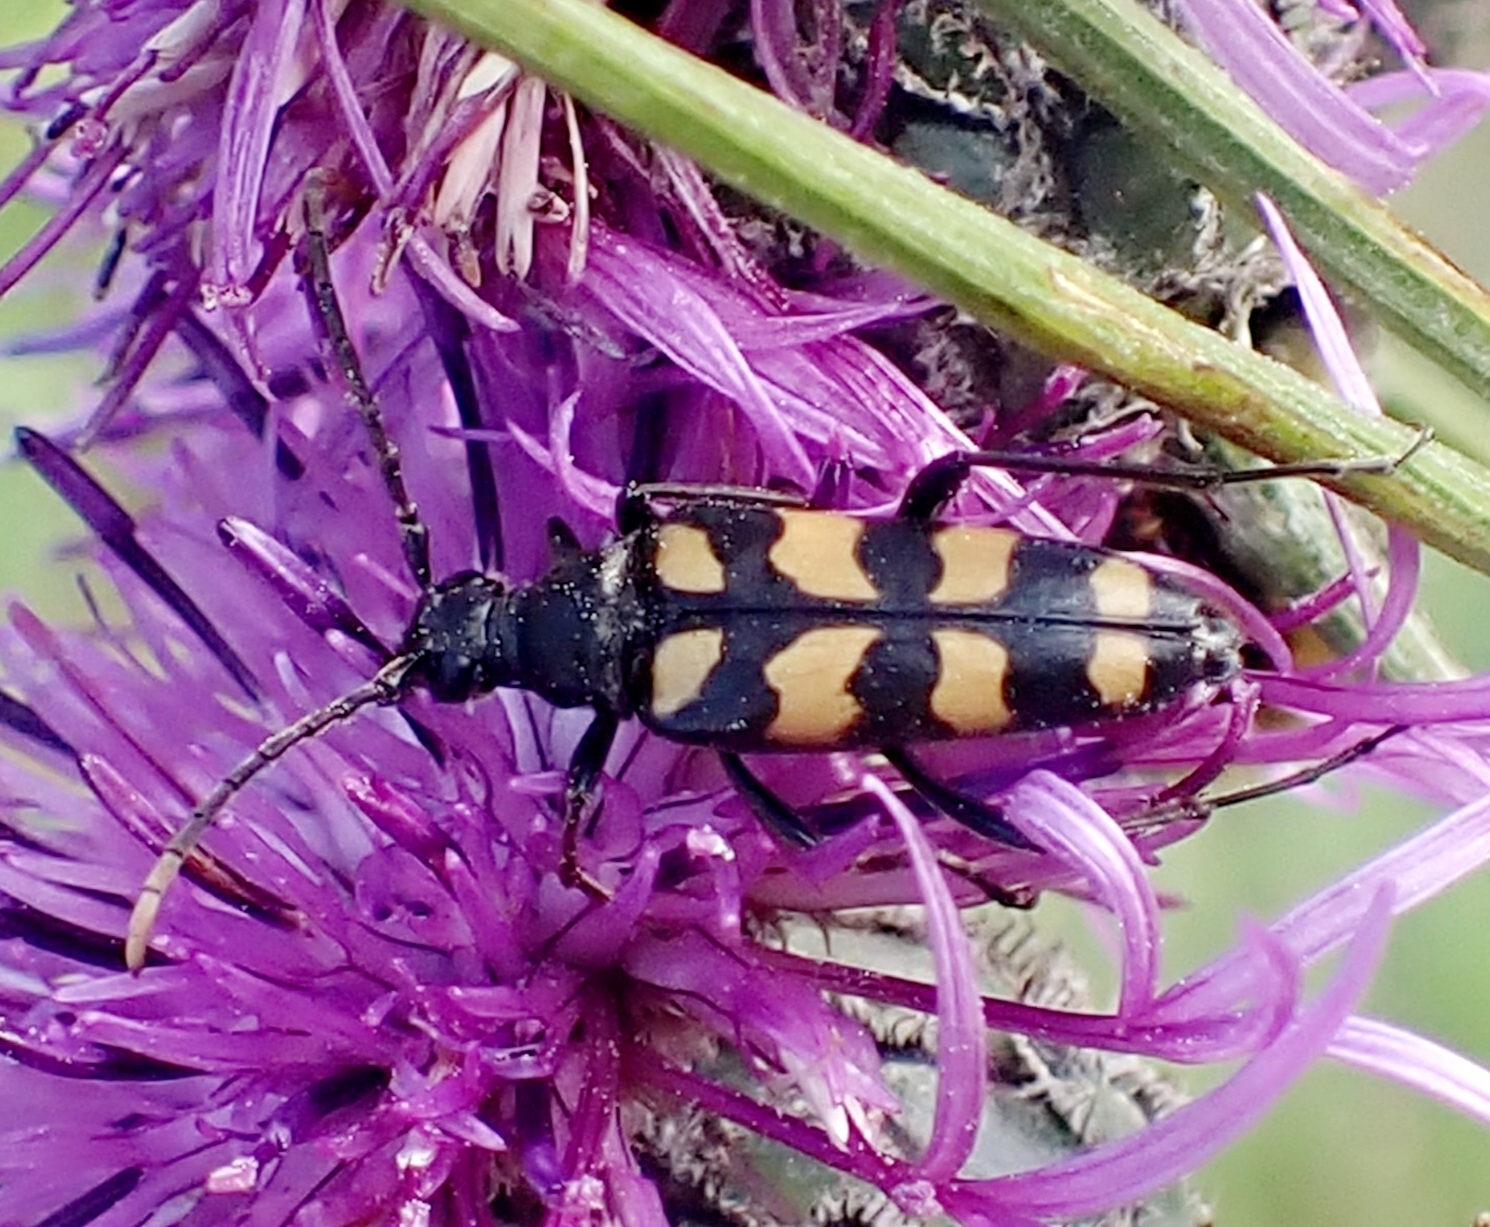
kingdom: Animalia
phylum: Arthropoda
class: Insecta
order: Coleoptera
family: Cerambycidae
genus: Leptura
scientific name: Leptura quadrifasciata
